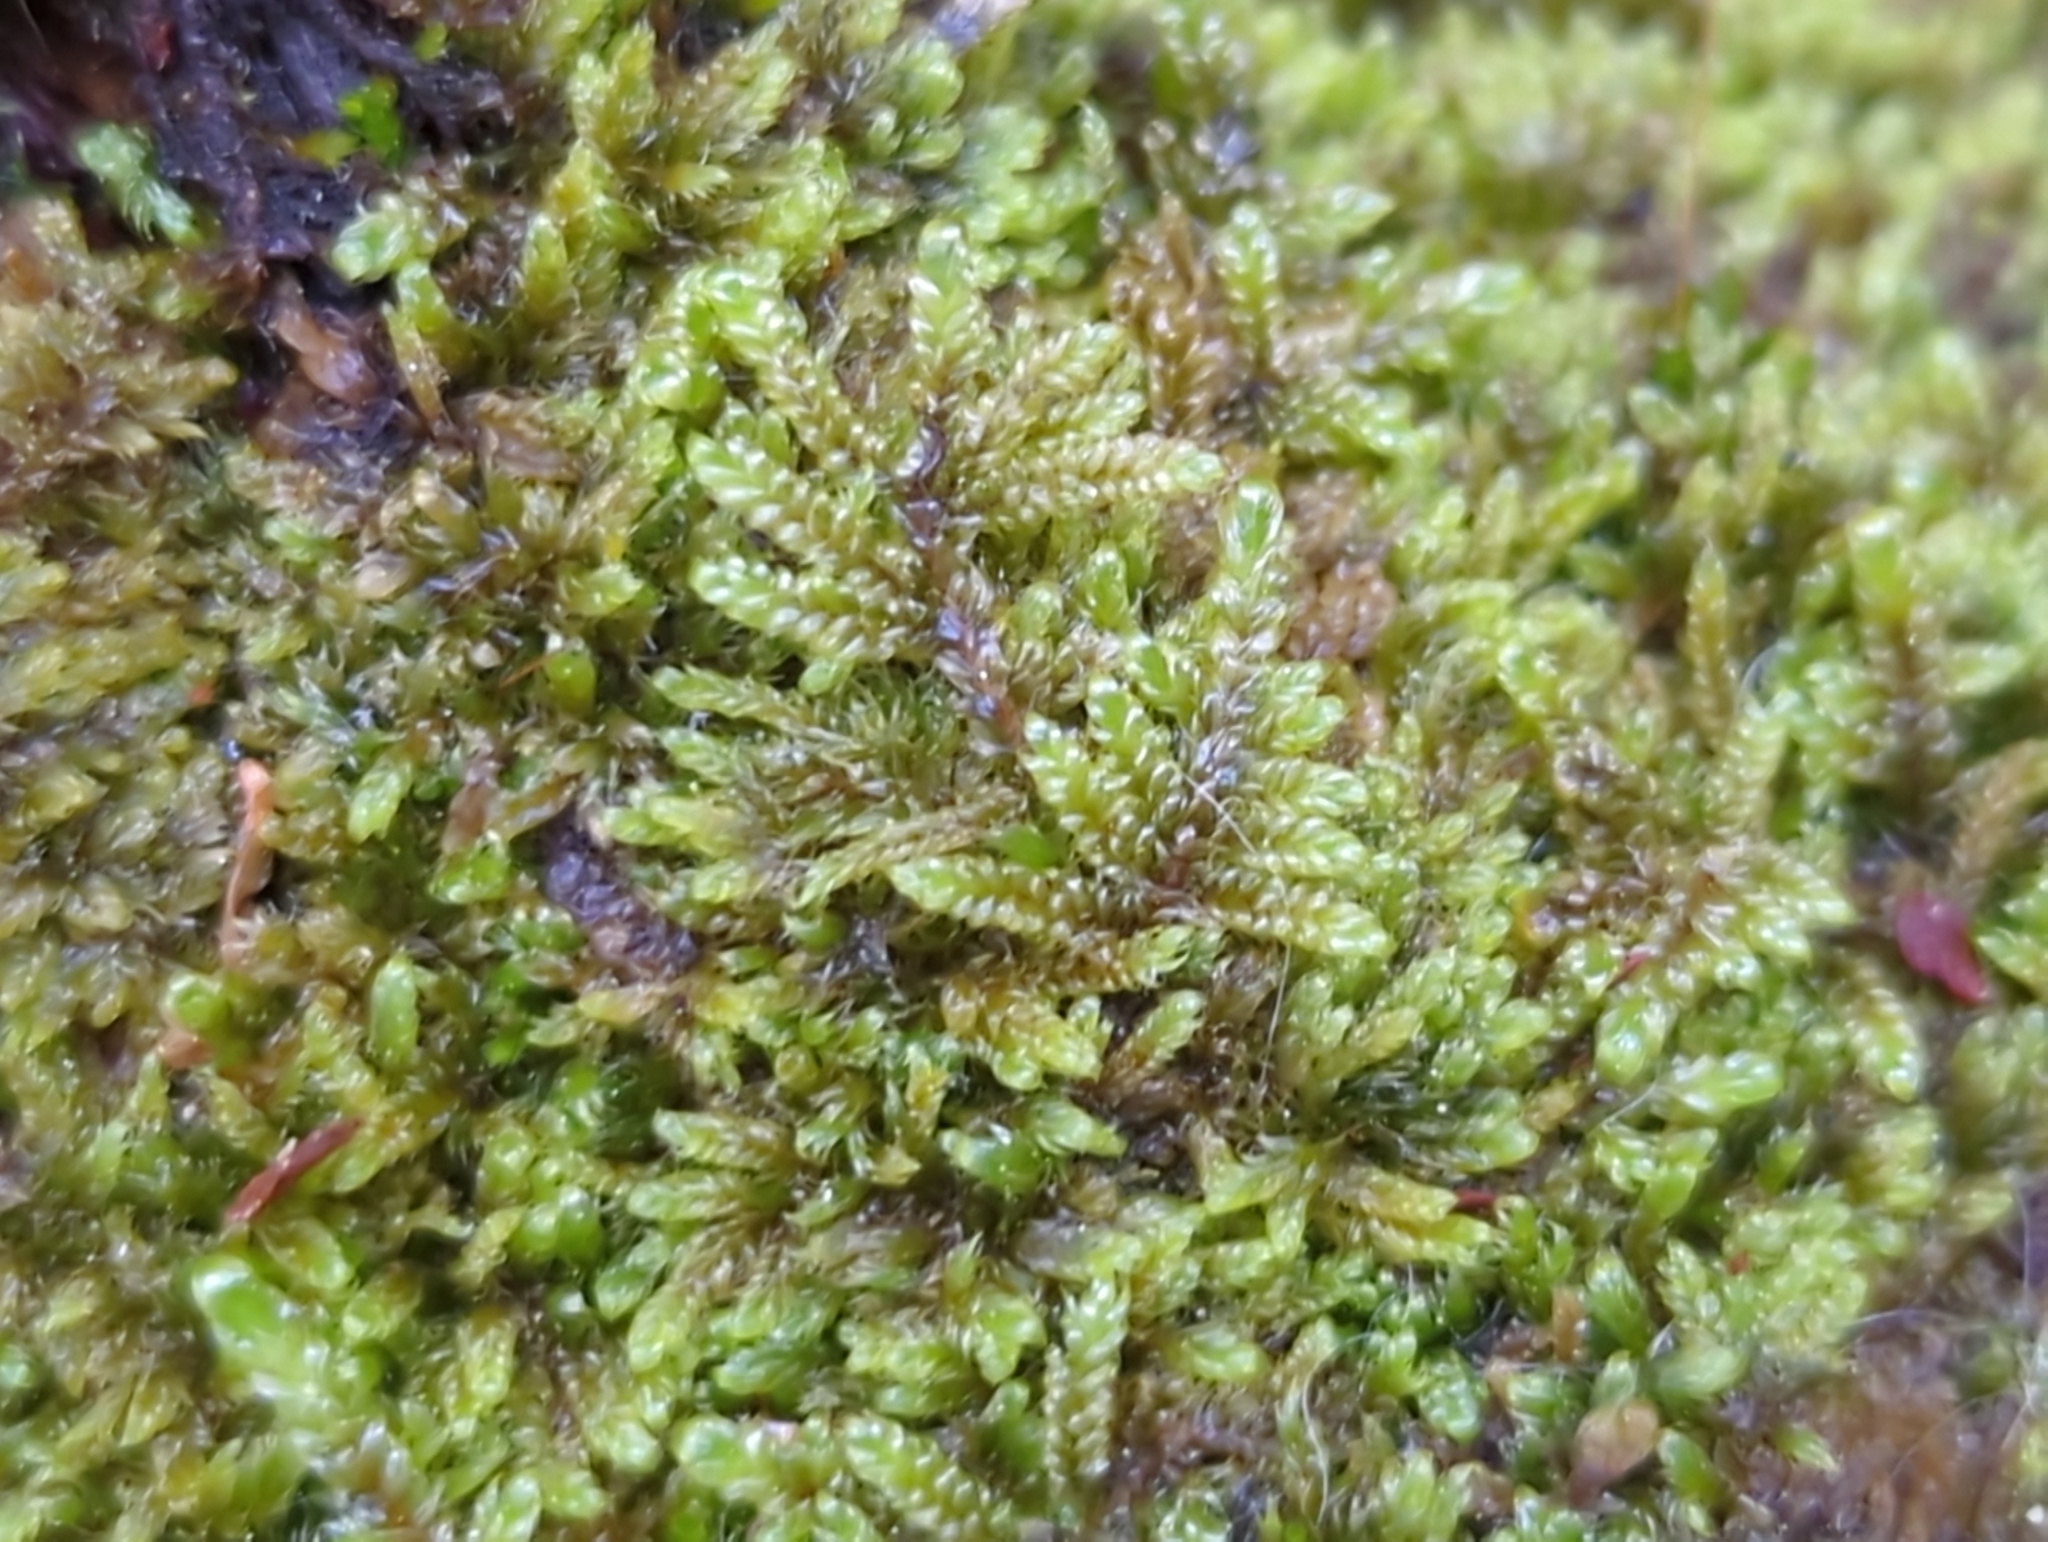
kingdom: Plantae
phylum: Bryophyta
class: Bryopsida
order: Hypnales
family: Callicladiaceae
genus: Callicladium
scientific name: Callicladium imponens
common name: Brocade moss
